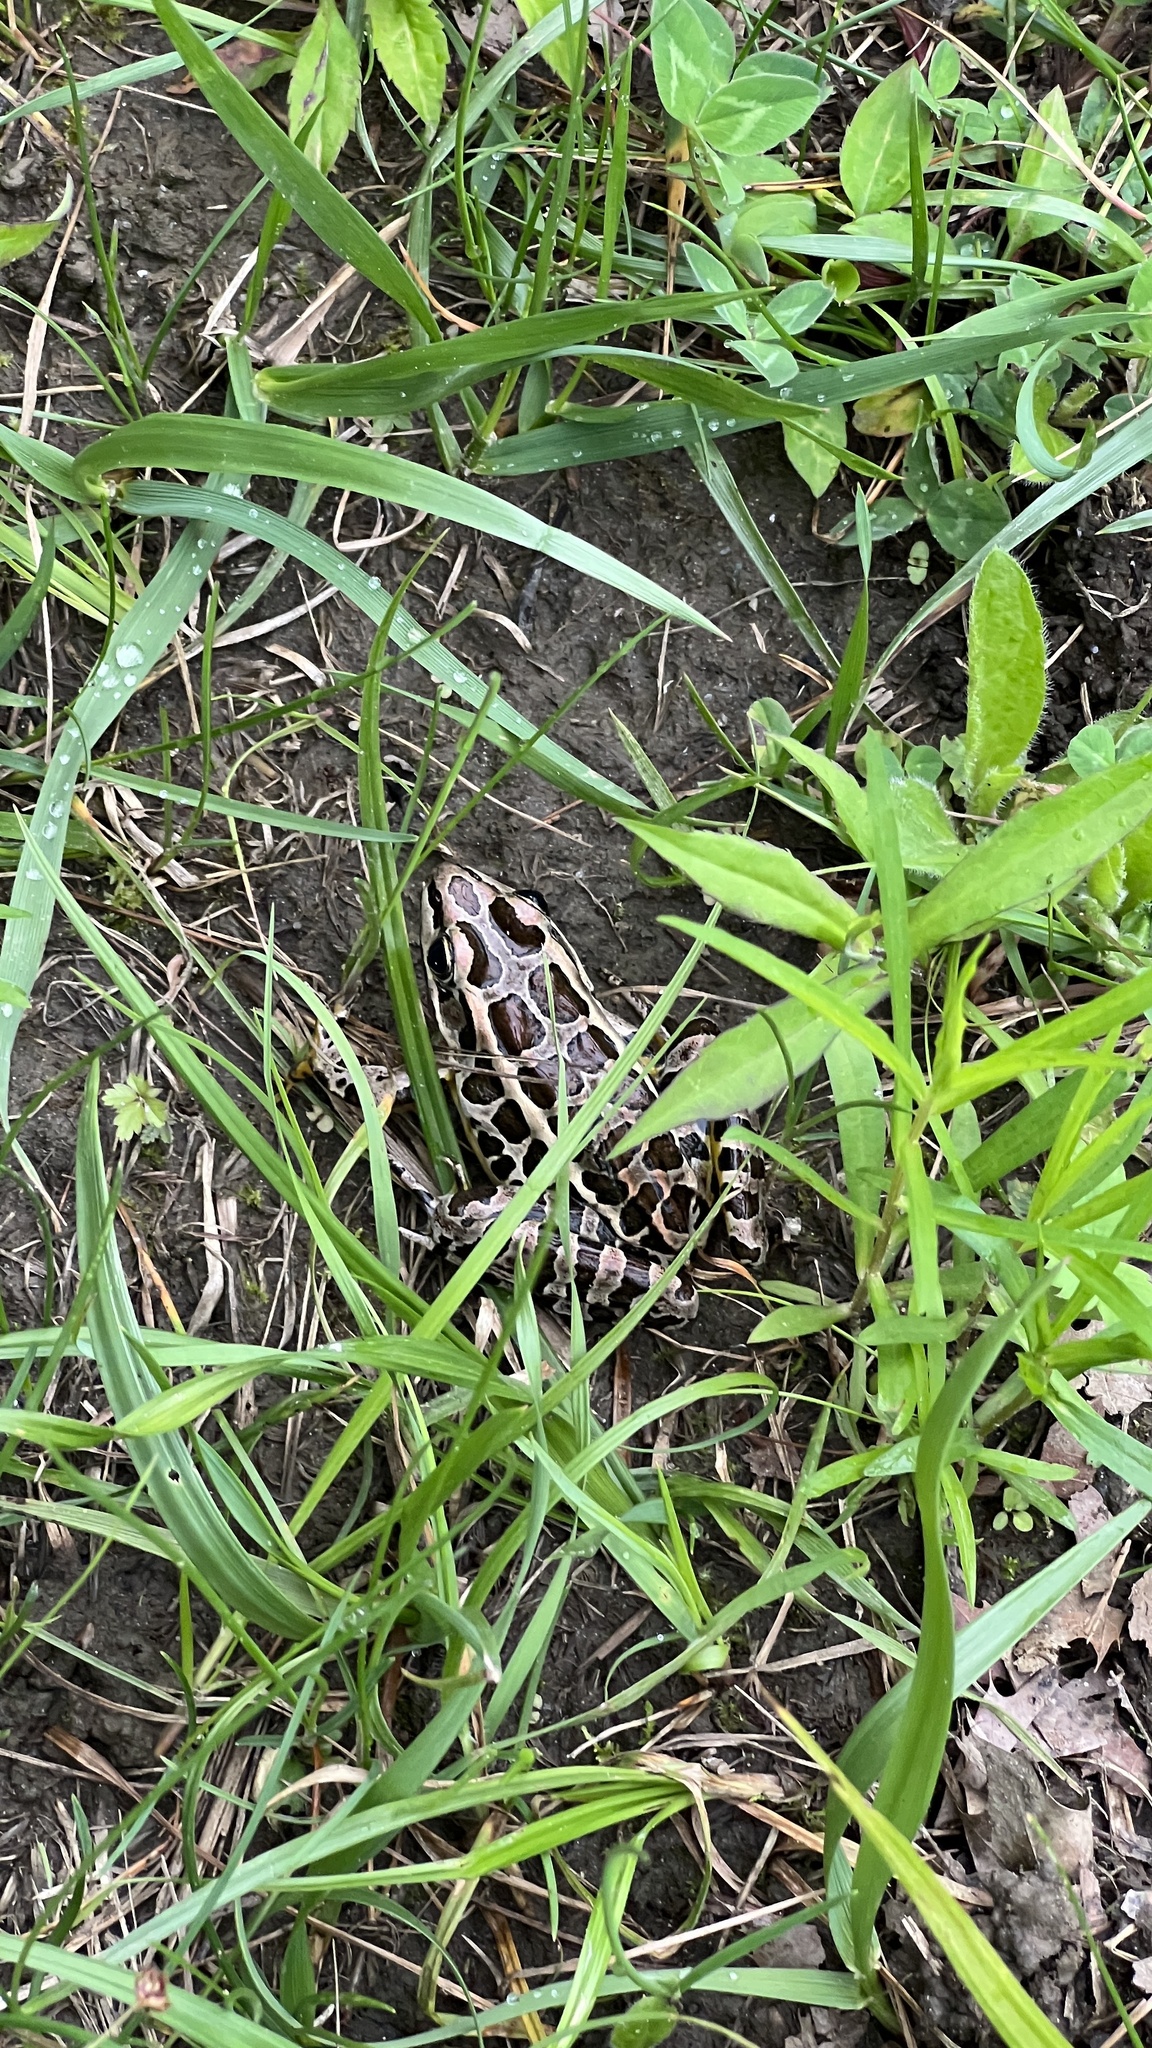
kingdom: Animalia
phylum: Chordata
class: Amphibia
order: Anura
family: Ranidae
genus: Lithobates
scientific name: Lithobates palustris
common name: Pickerel frog
